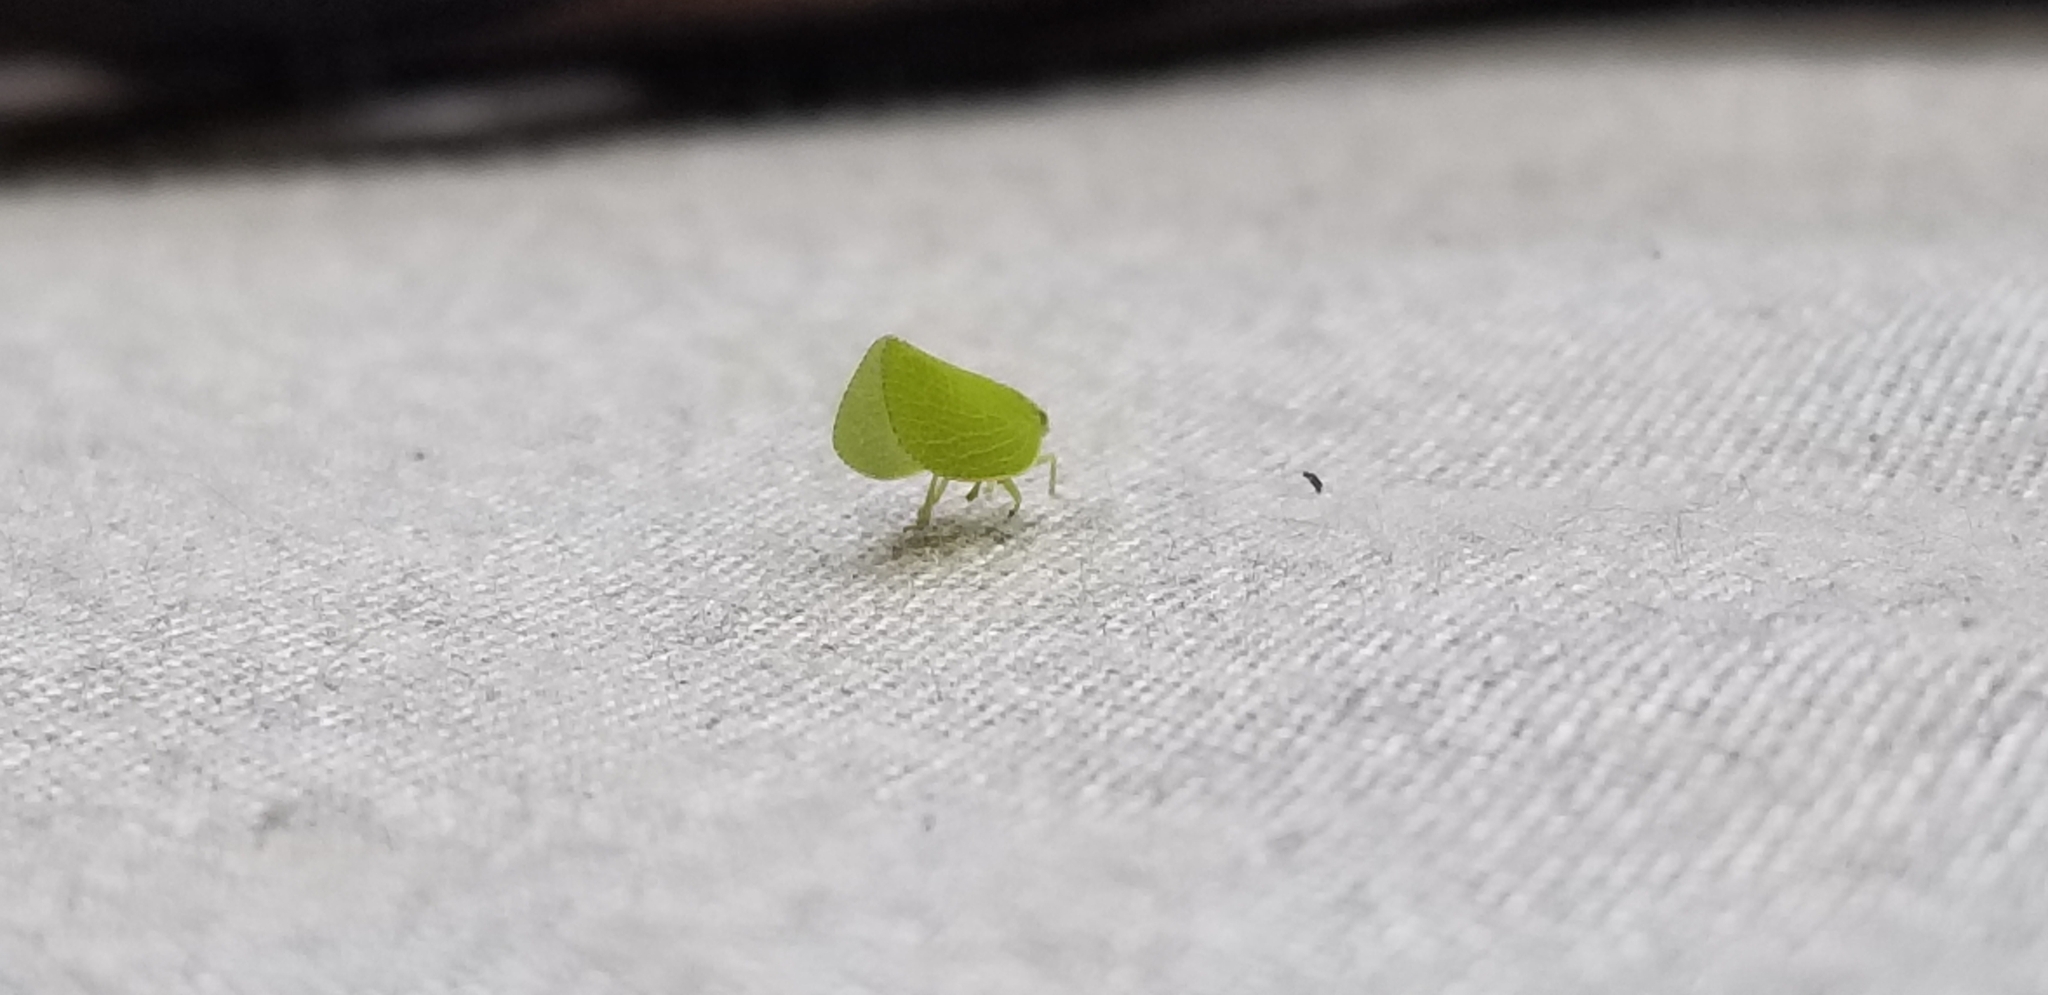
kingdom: Animalia
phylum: Arthropoda
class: Insecta
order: Hemiptera
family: Acanaloniidae
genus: Acanalonia
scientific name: Acanalonia conica
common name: Green cone-headed planthopper
